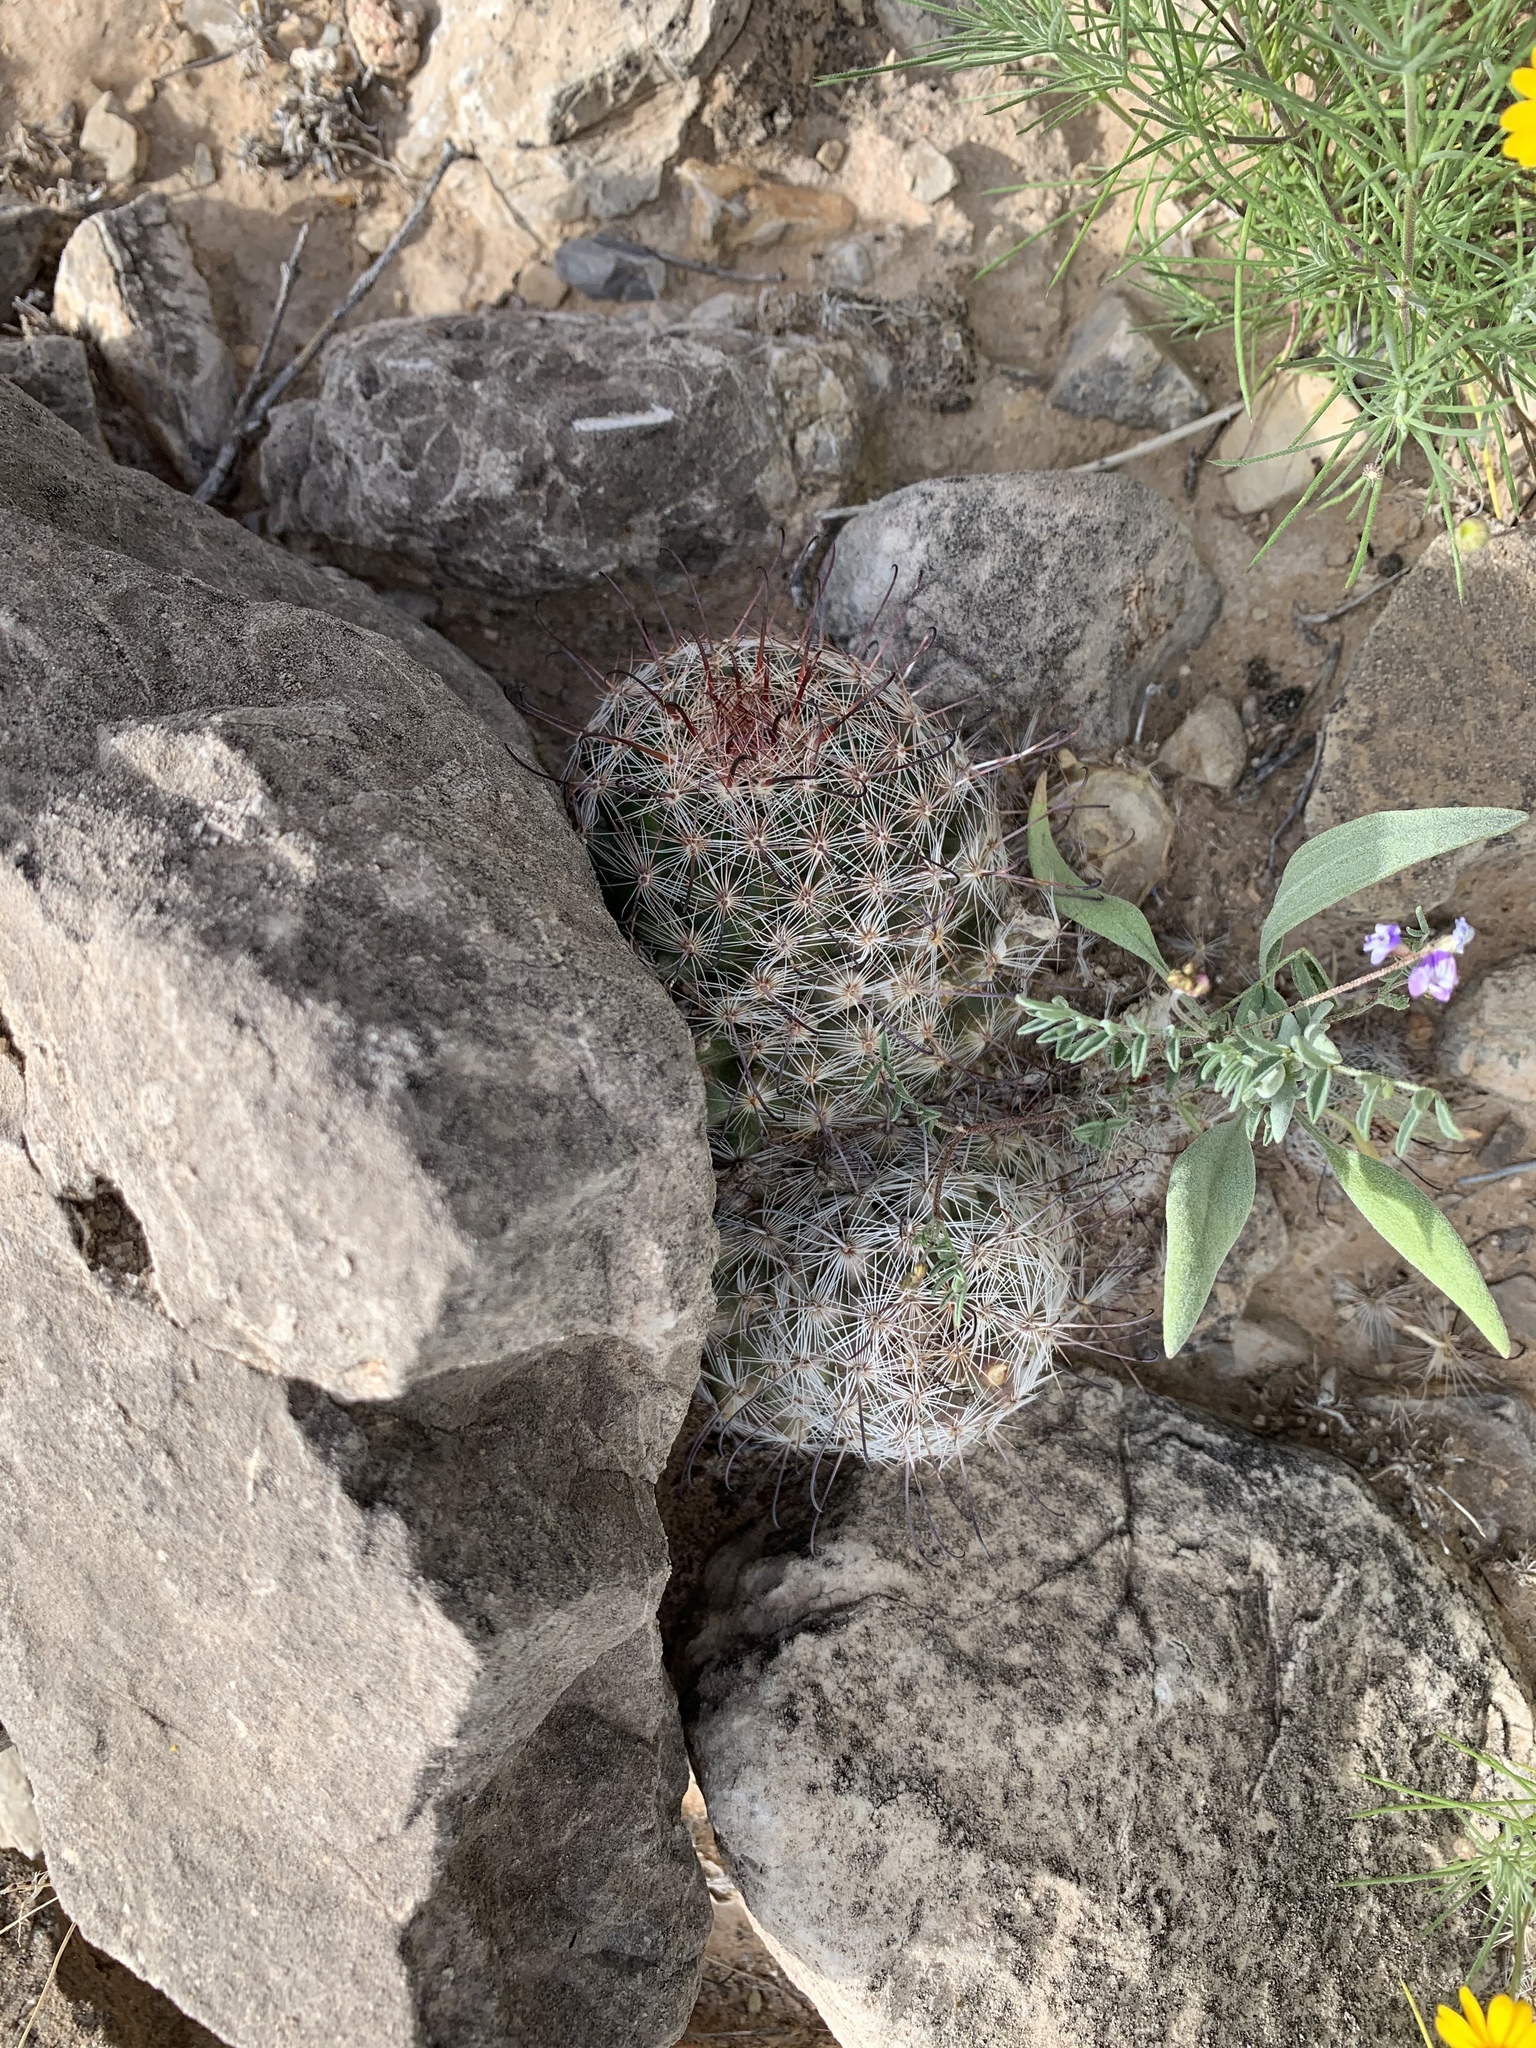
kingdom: Plantae
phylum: Tracheophyta
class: Magnoliopsida
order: Caryophyllales
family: Cactaceae
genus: Cochemiea
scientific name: Cochemiea grahamii
